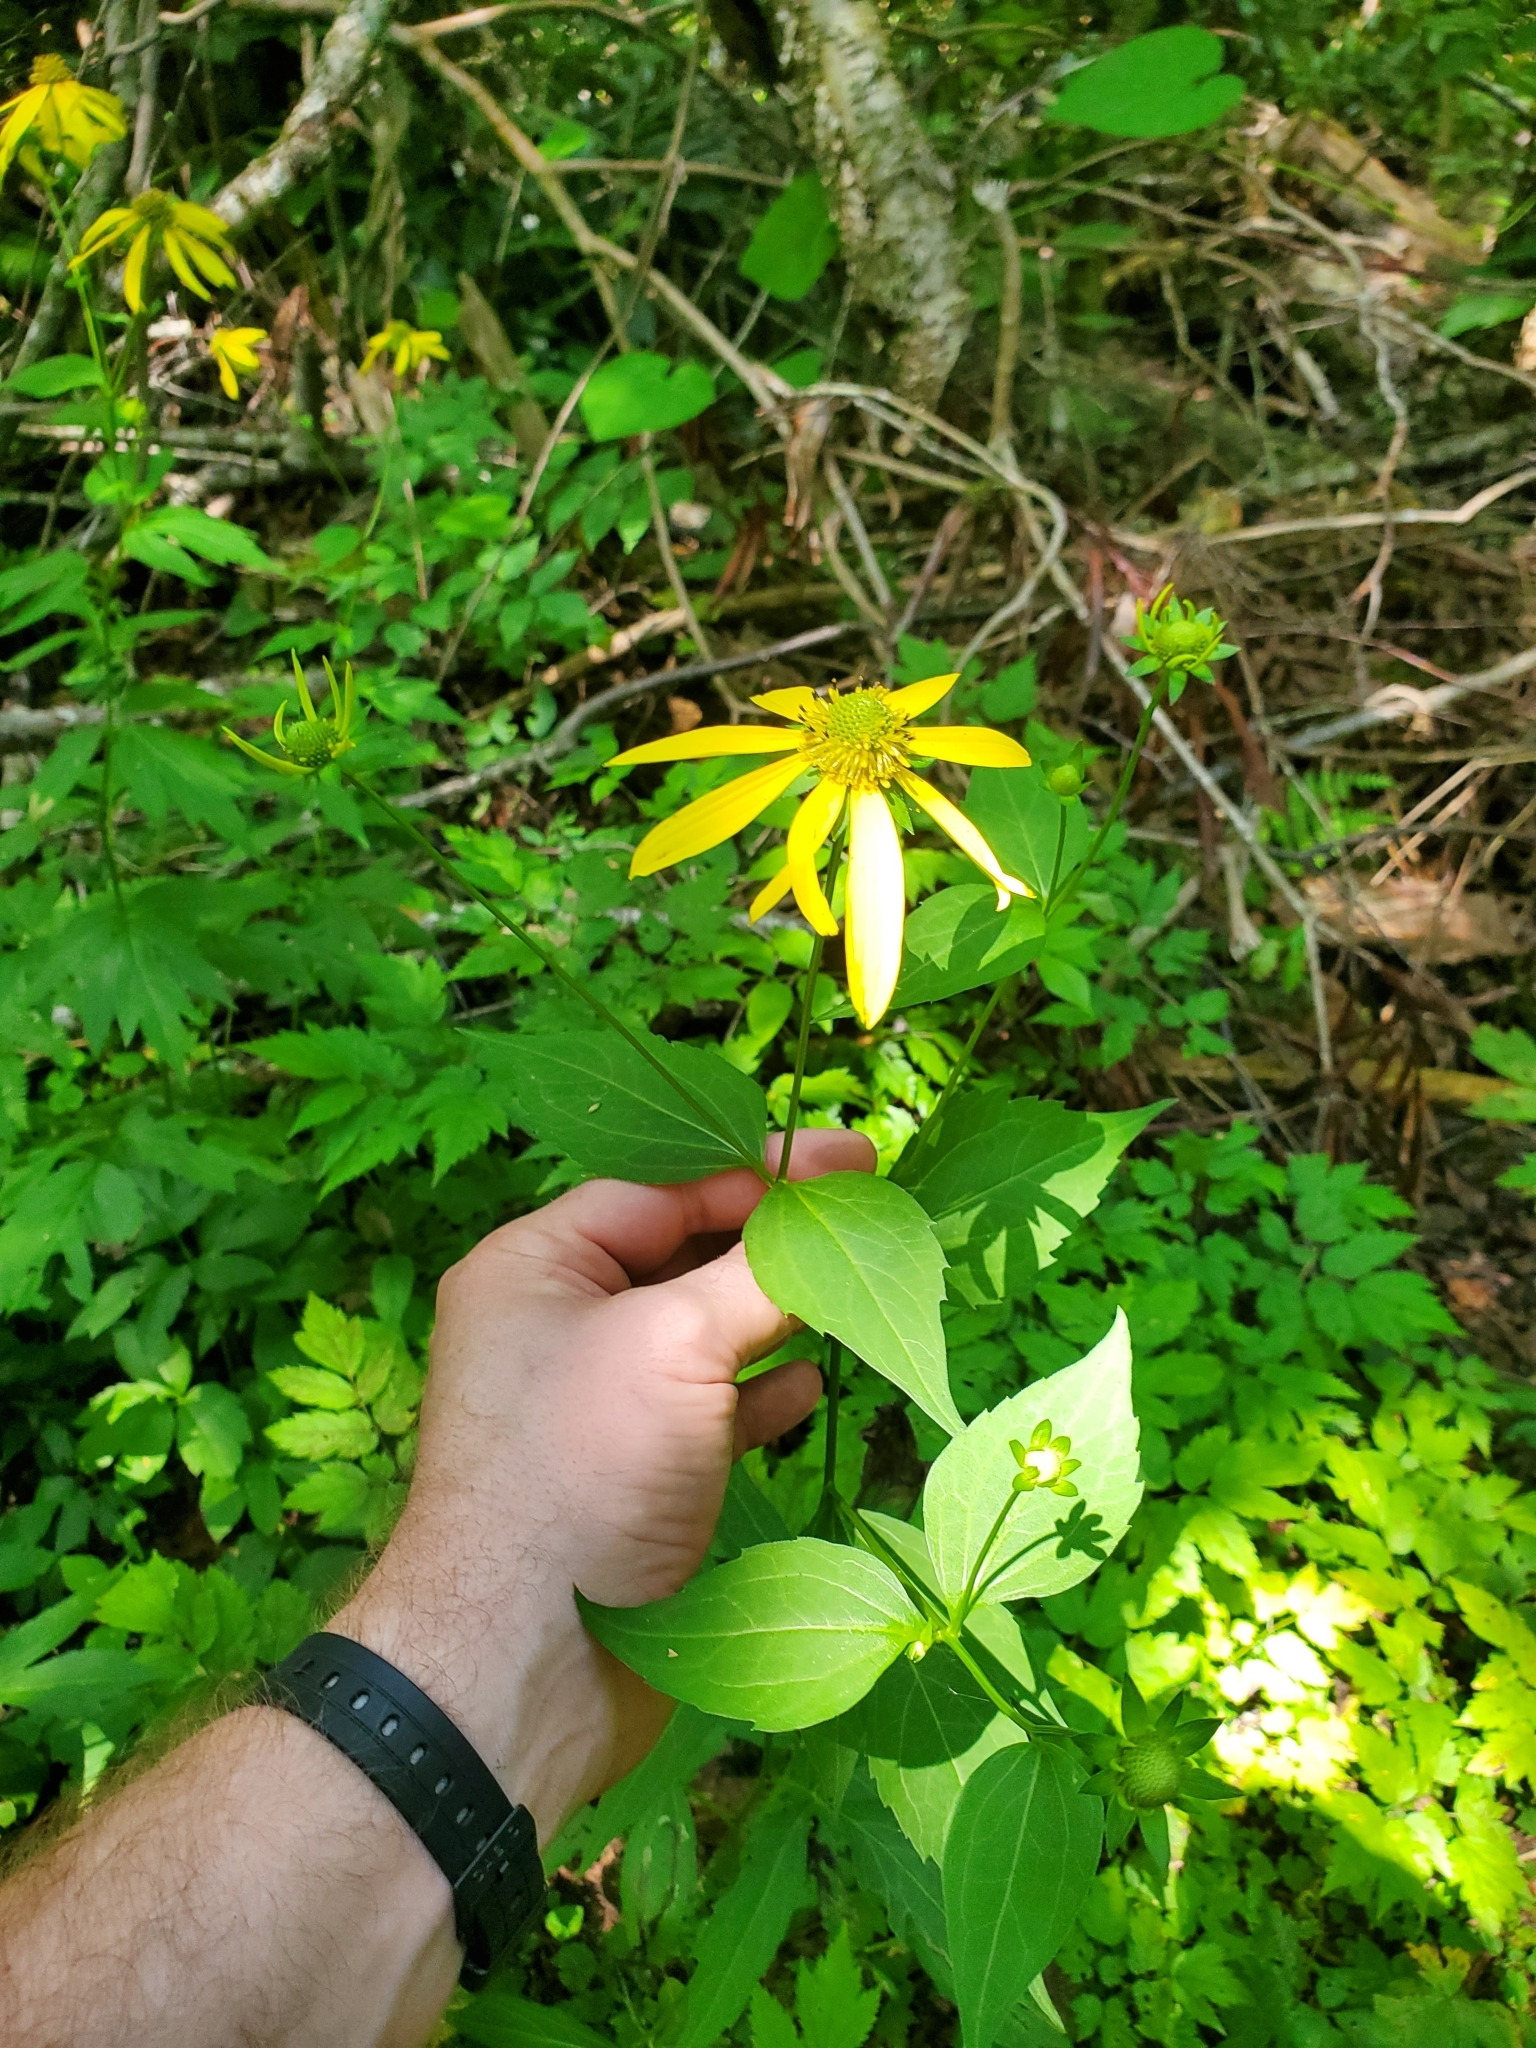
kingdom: Plantae
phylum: Tracheophyta
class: Magnoliopsida
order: Asterales
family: Asteraceae
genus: Rudbeckia
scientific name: Rudbeckia laciniata
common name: Coneflower
